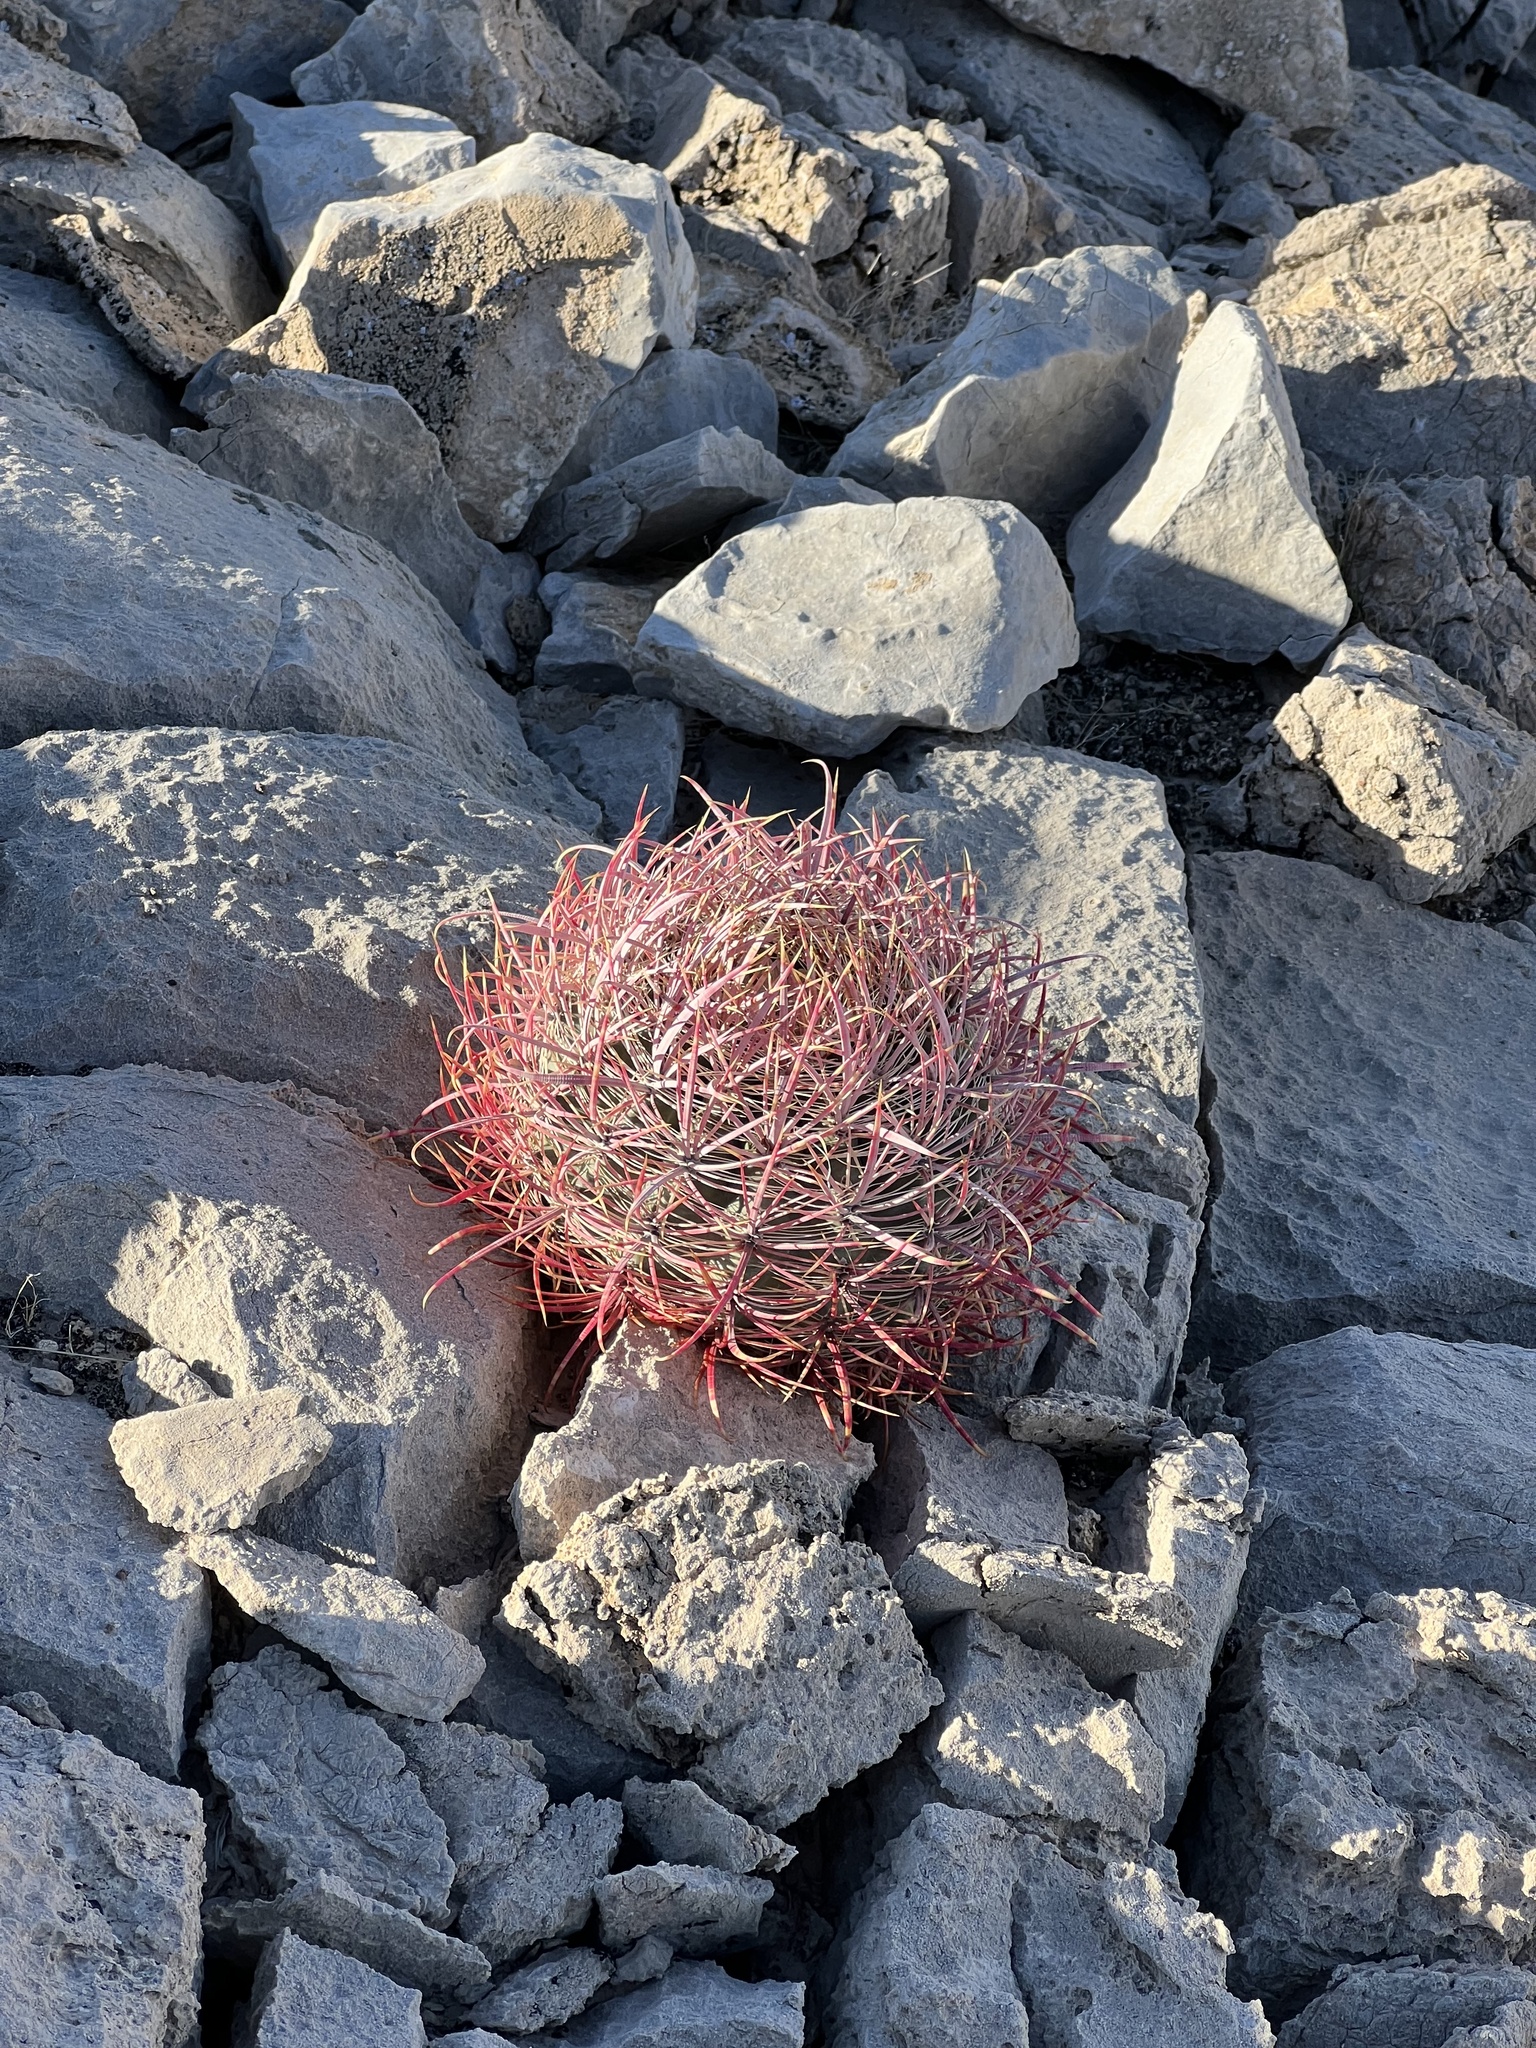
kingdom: Plantae
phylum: Tracheophyta
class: Magnoliopsida
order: Caryophyllales
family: Cactaceae
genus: Ferocactus
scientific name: Ferocactus cylindraceus
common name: California barrel cactus
